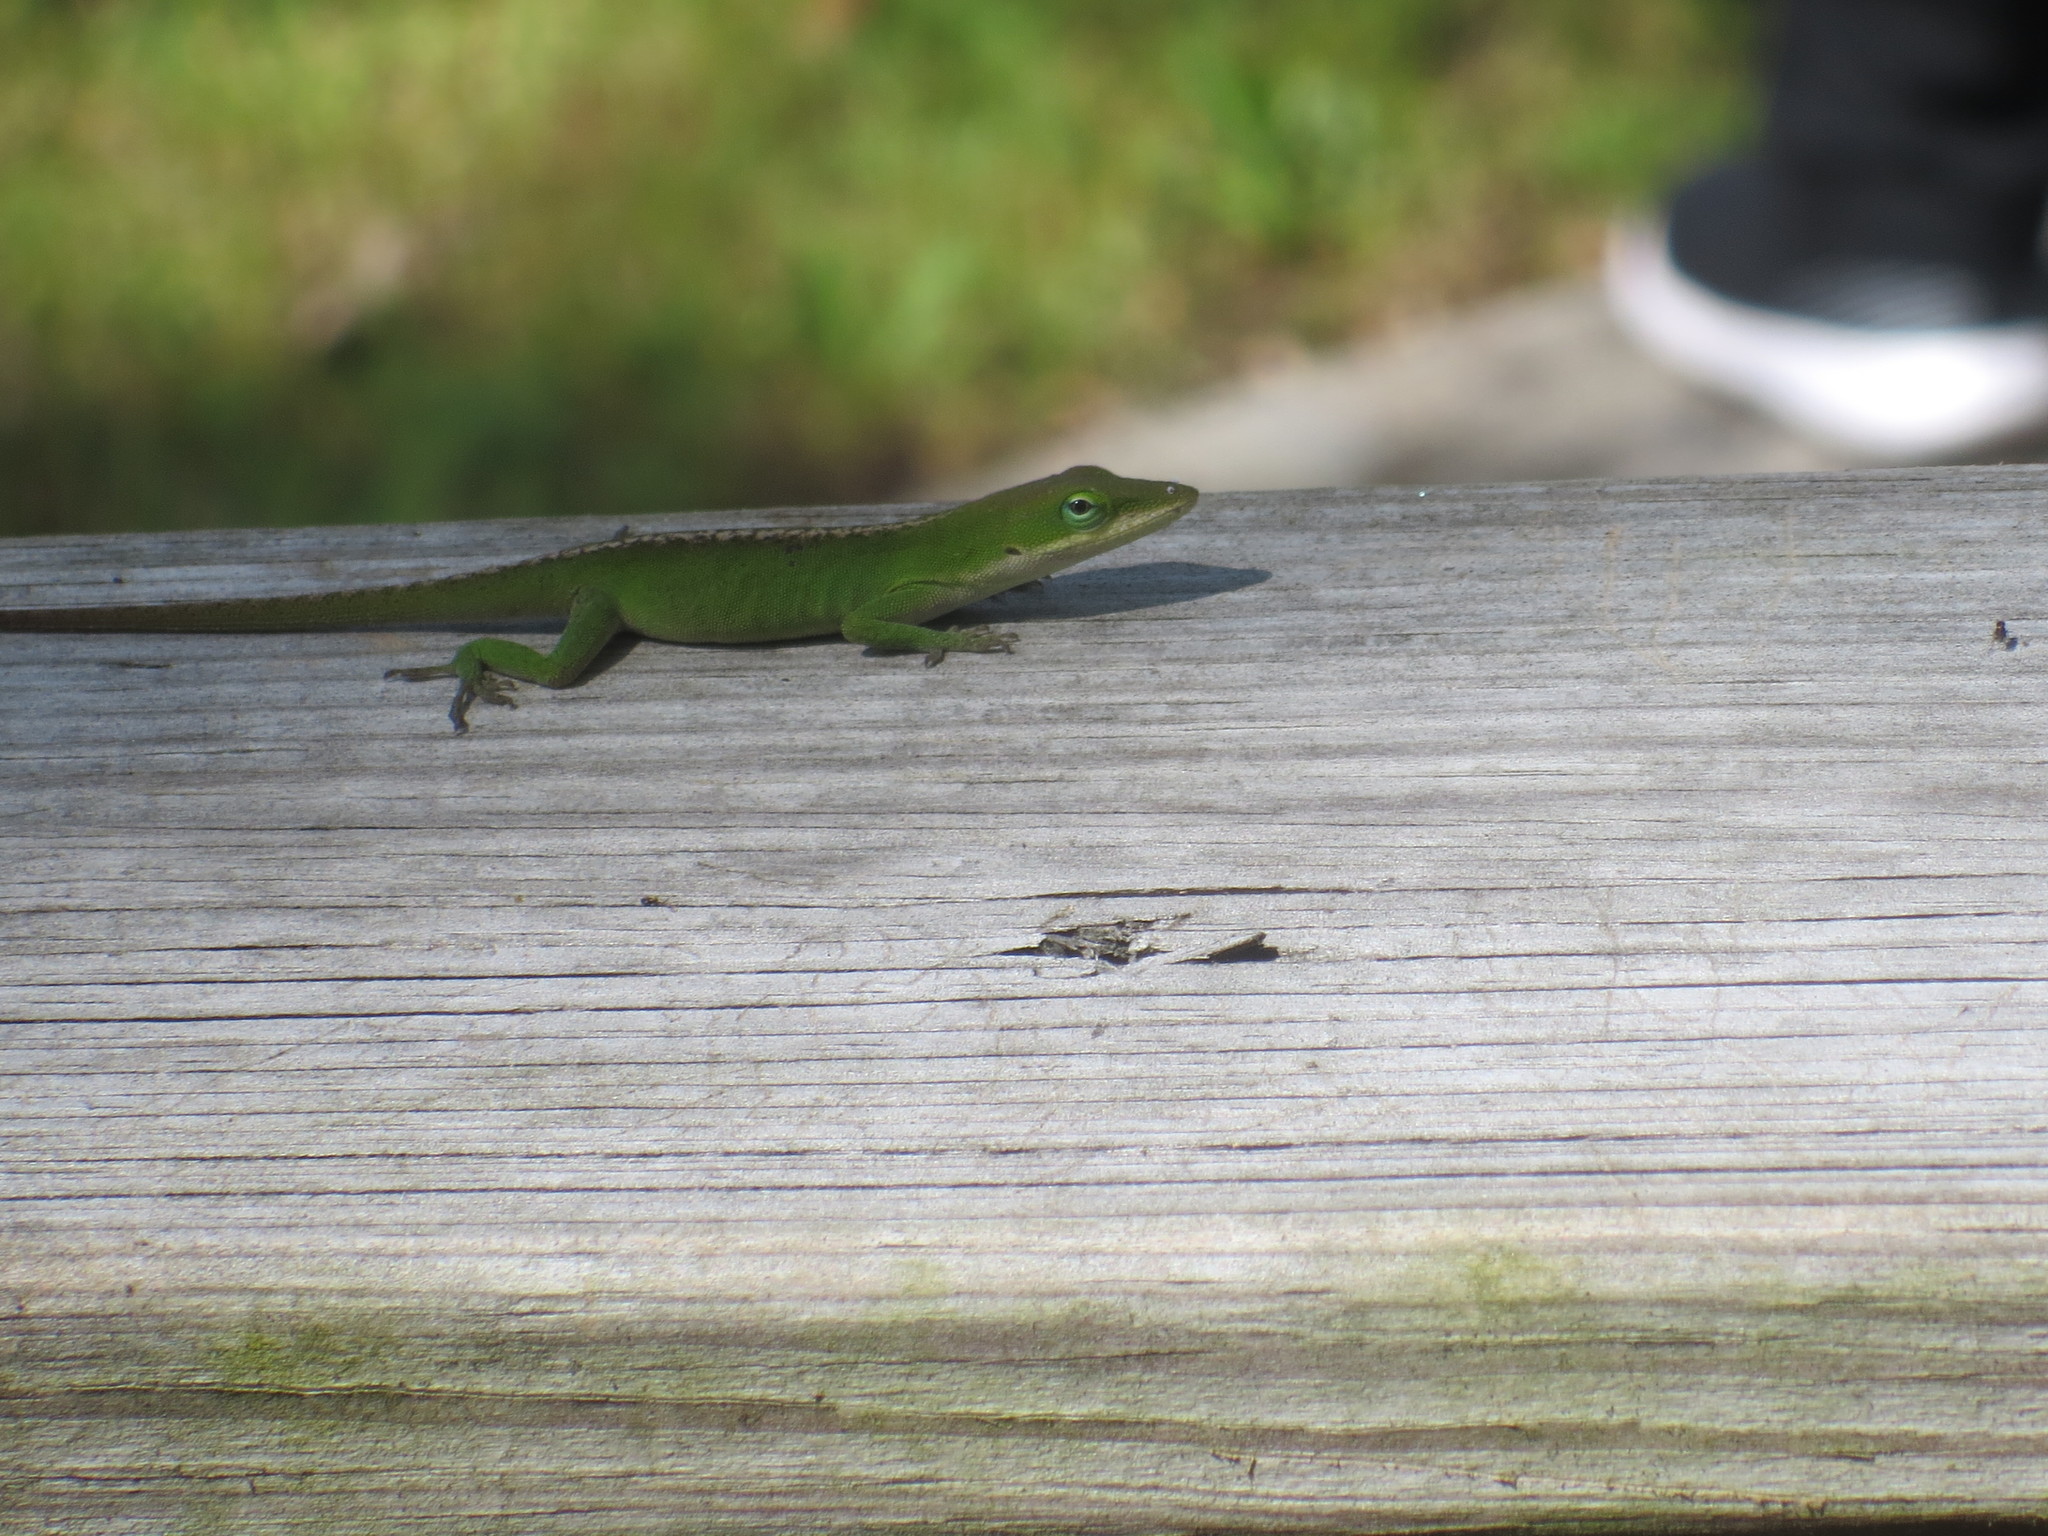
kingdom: Animalia
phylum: Chordata
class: Squamata
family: Dactyloidae
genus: Anolis
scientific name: Anolis carolinensis
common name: Green anole
